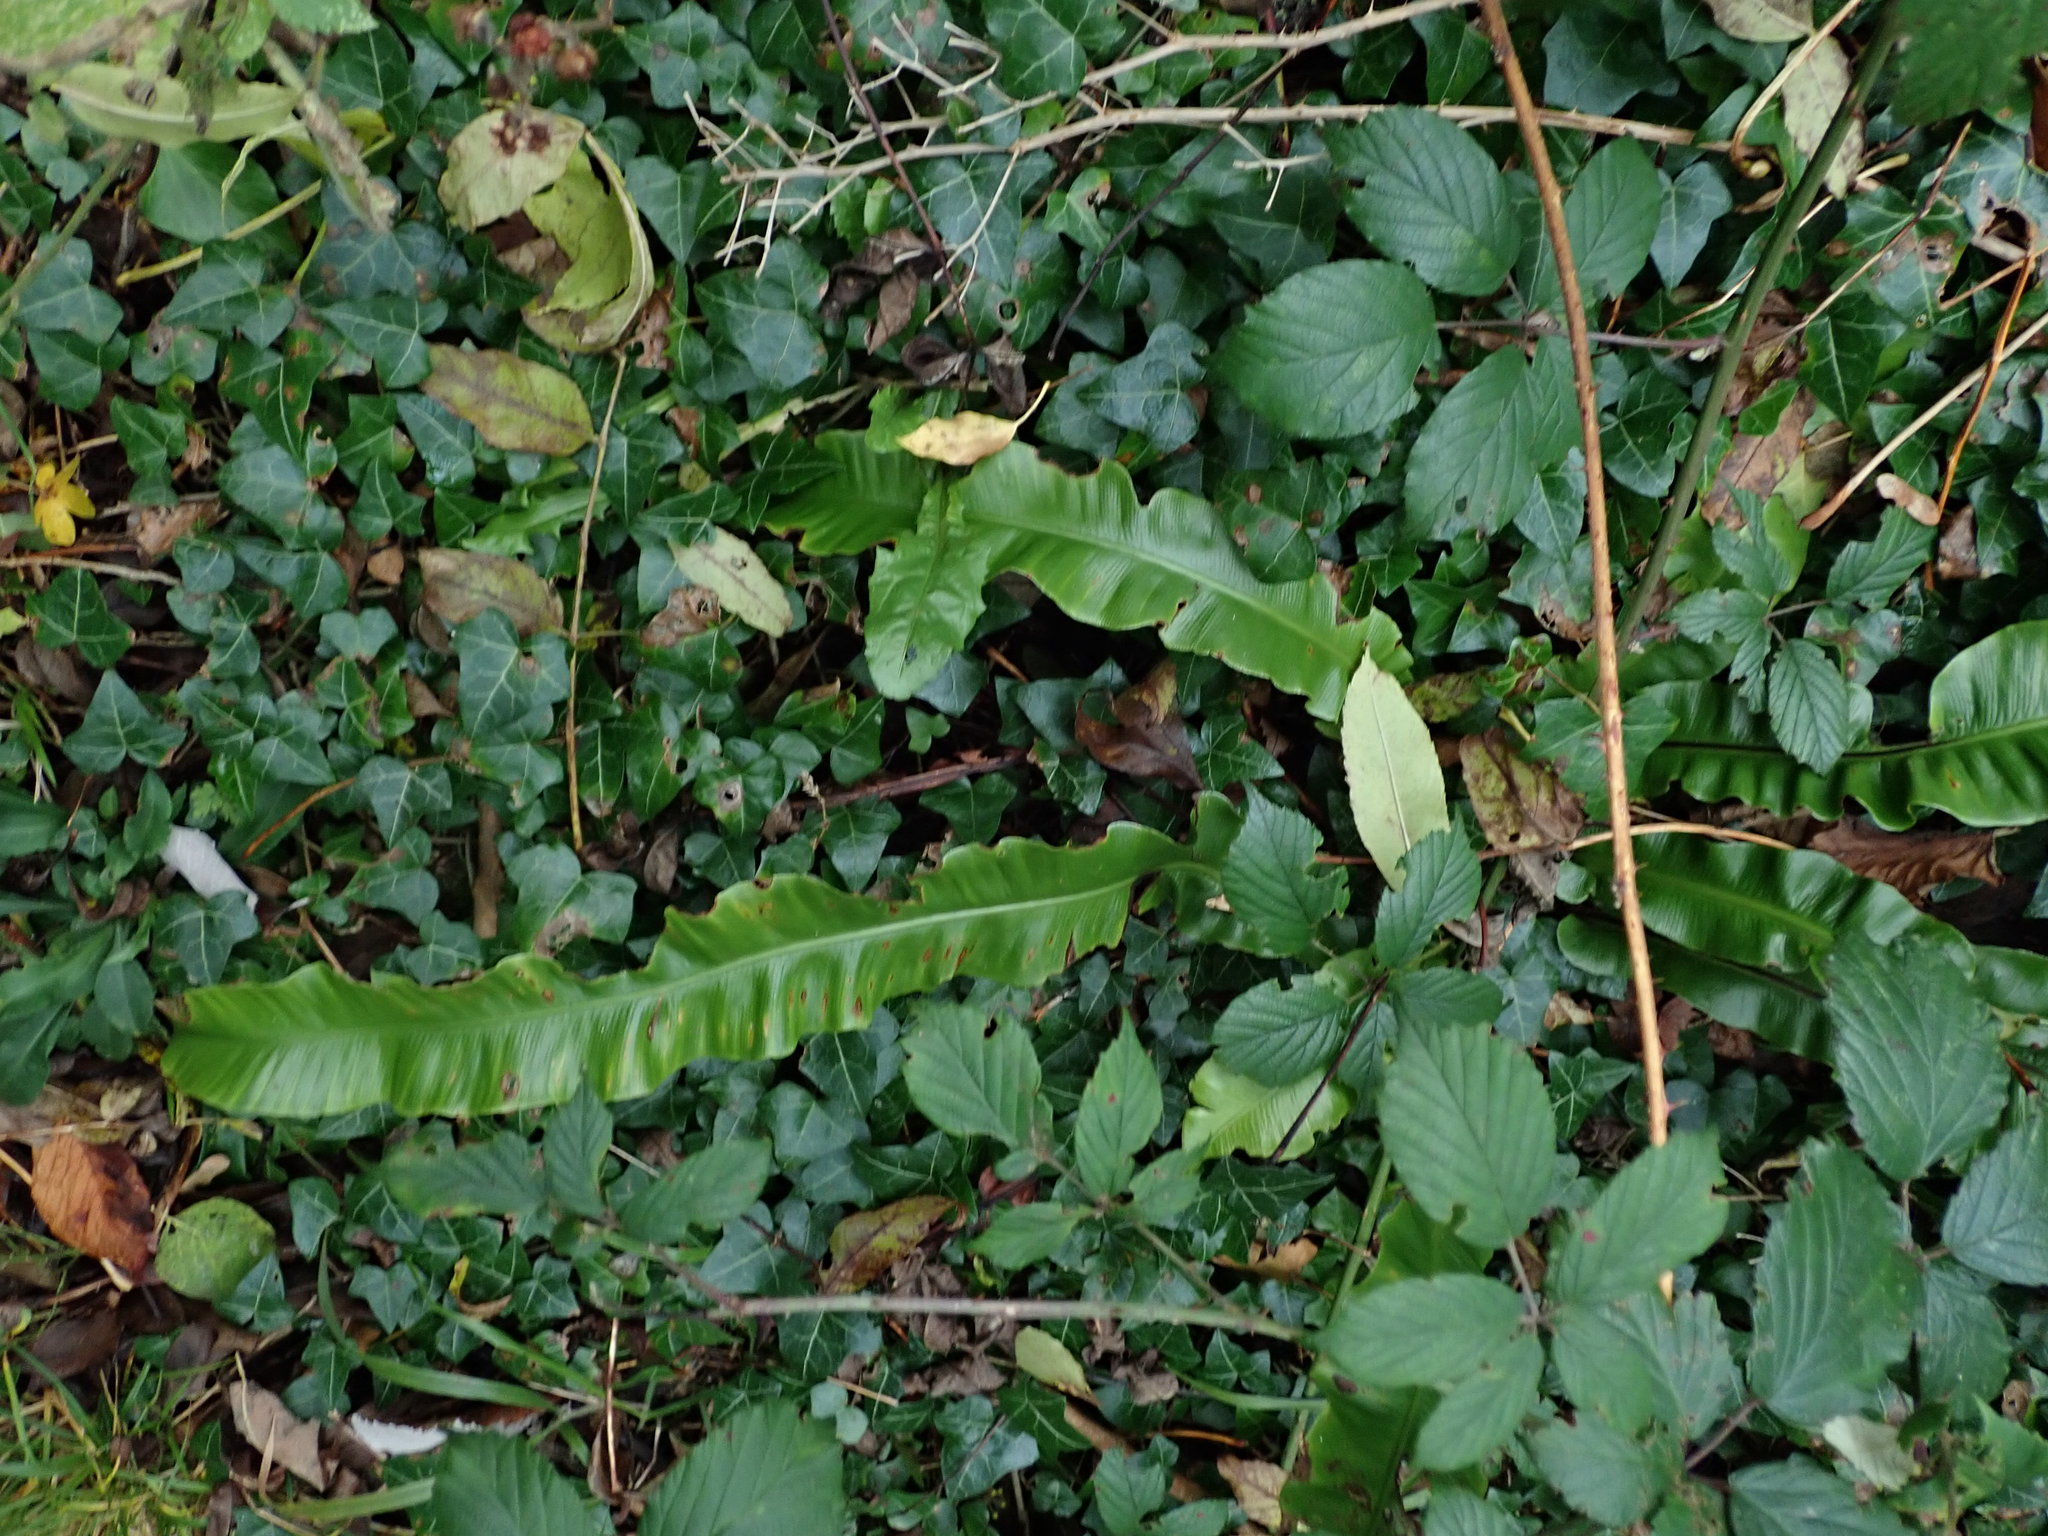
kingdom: Plantae
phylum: Tracheophyta
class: Polypodiopsida
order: Polypodiales
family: Aspleniaceae
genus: Asplenium
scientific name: Asplenium scolopendrium
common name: Hart's-tongue fern
